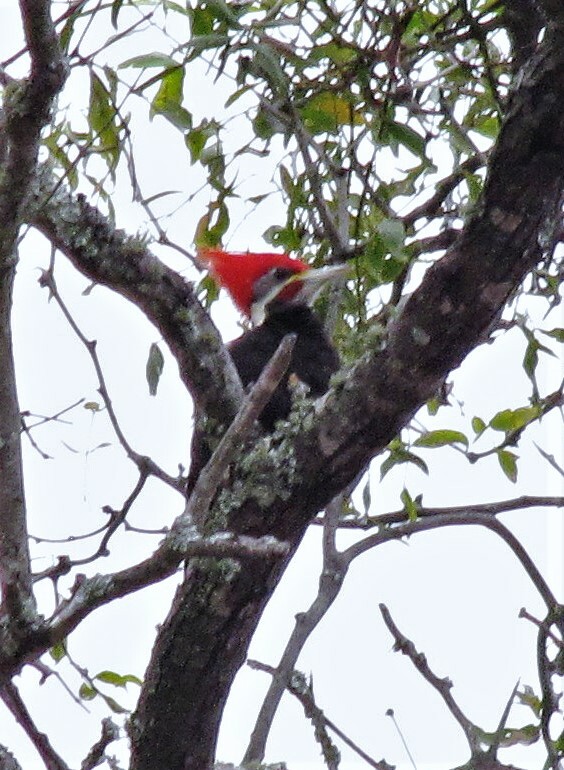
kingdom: Animalia
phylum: Chordata
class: Aves
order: Piciformes
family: Picidae
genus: Dryocopus
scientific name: Dryocopus schulzii
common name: Black-bodied woodpecker
